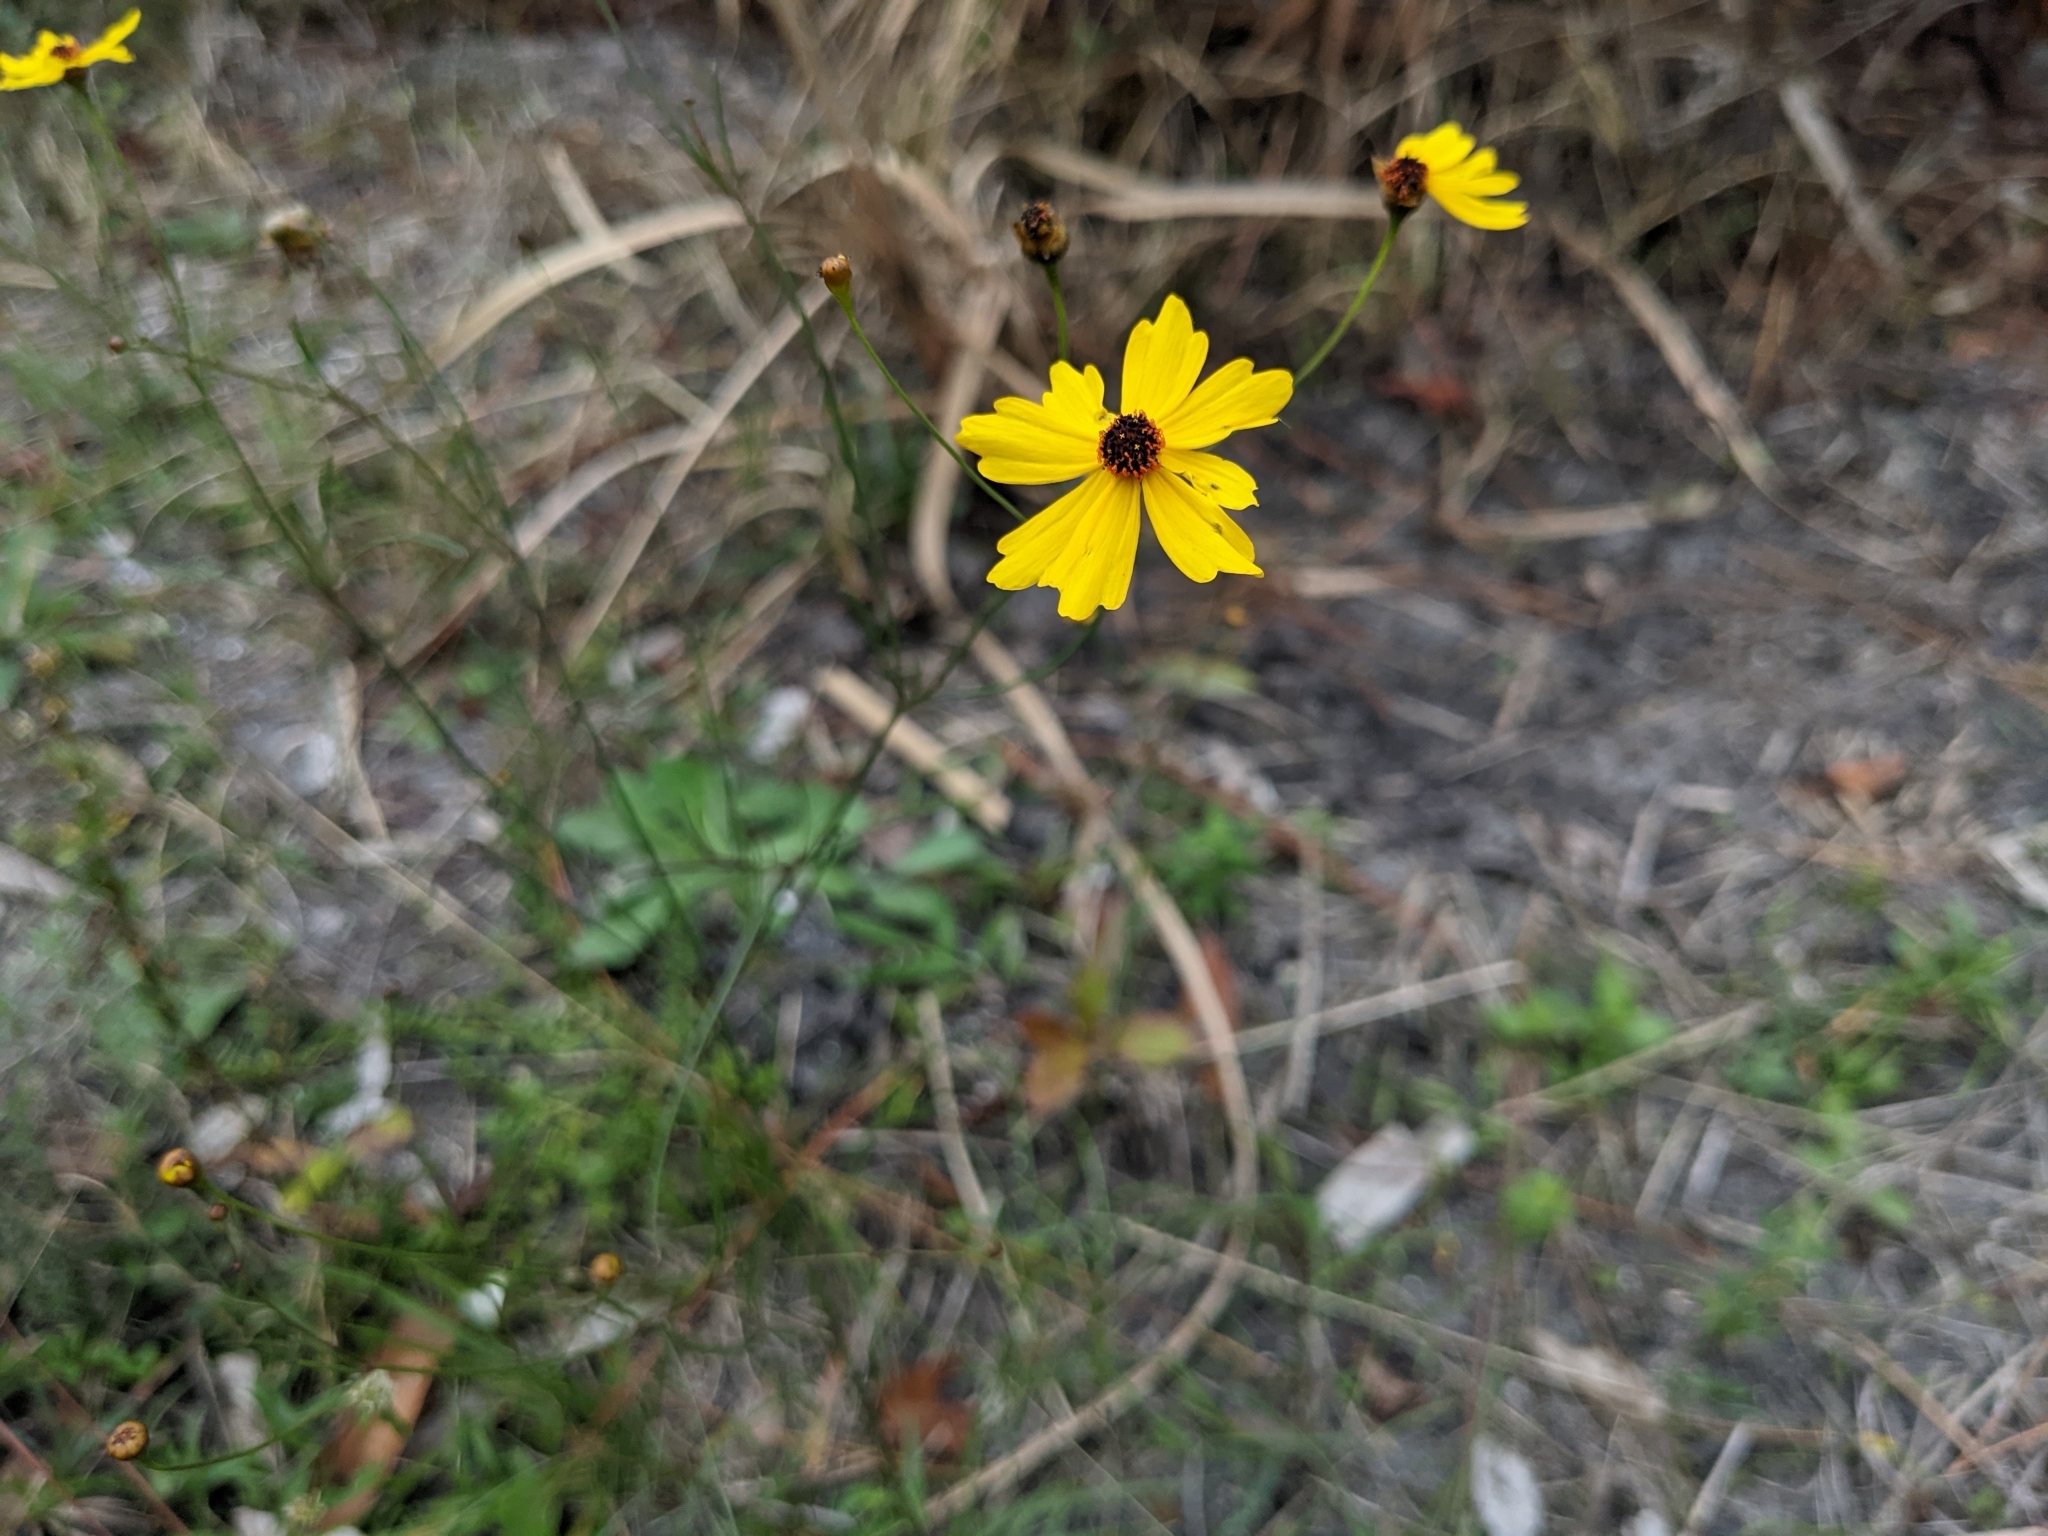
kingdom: Plantae
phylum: Tracheophyta
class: Magnoliopsida
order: Asterales
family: Asteraceae
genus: Coreopsis
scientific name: Coreopsis leavenworthii
